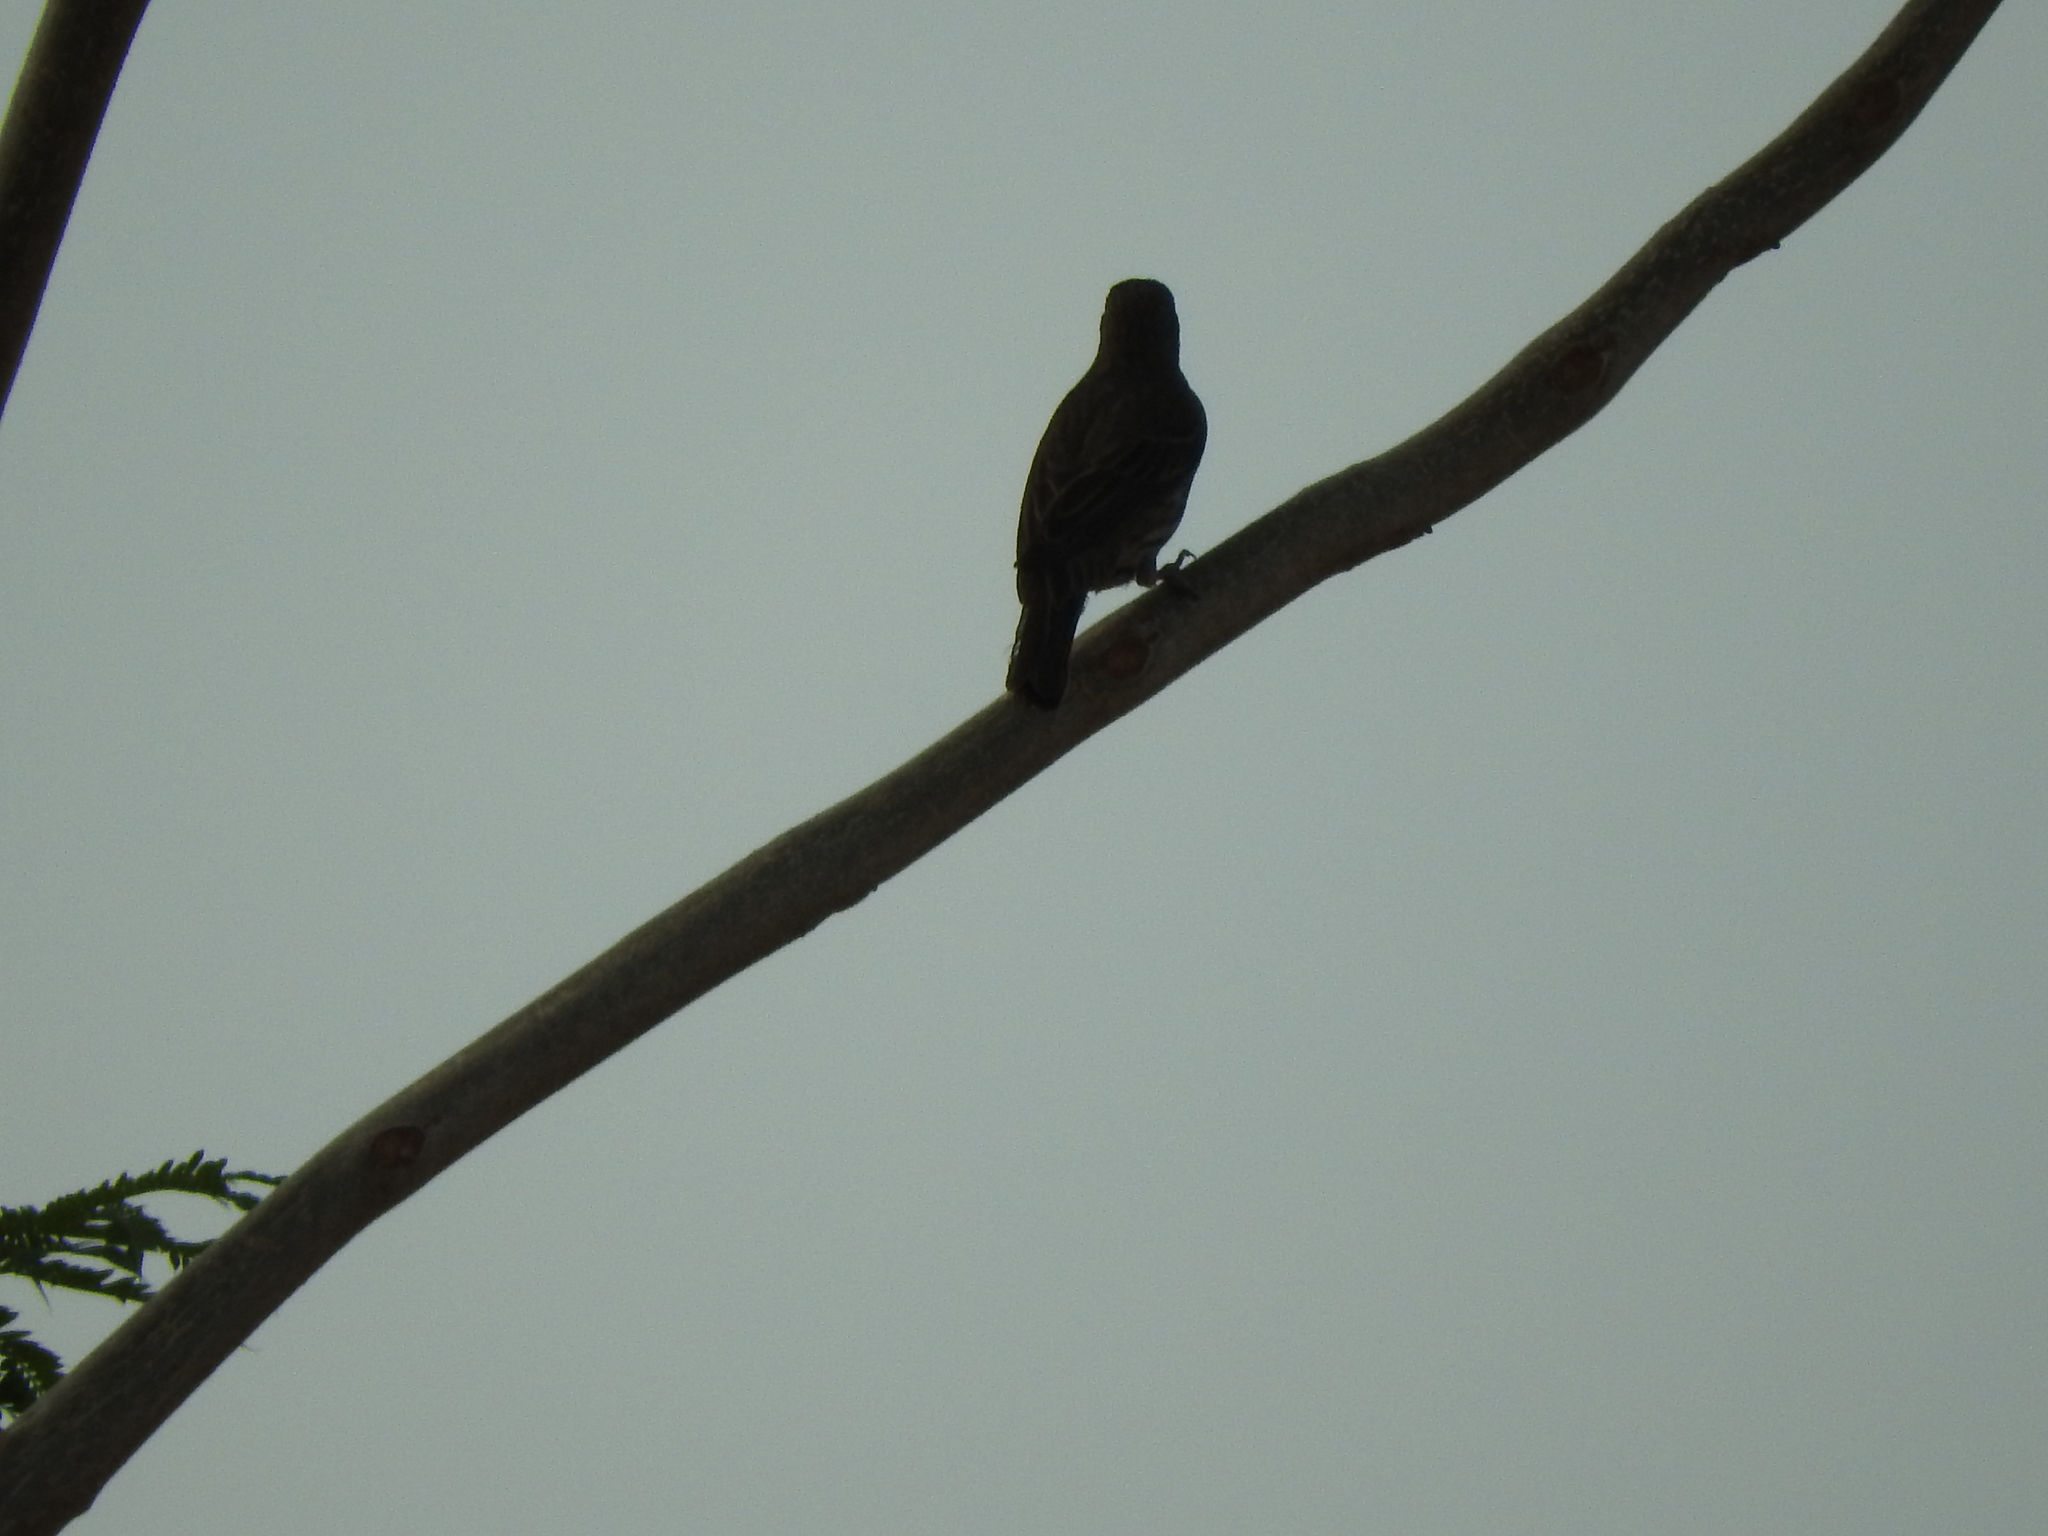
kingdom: Animalia
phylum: Chordata
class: Aves
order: Passeriformes
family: Fringillidae
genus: Haemorhous
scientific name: Haemorhous mexicanus
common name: House finch
